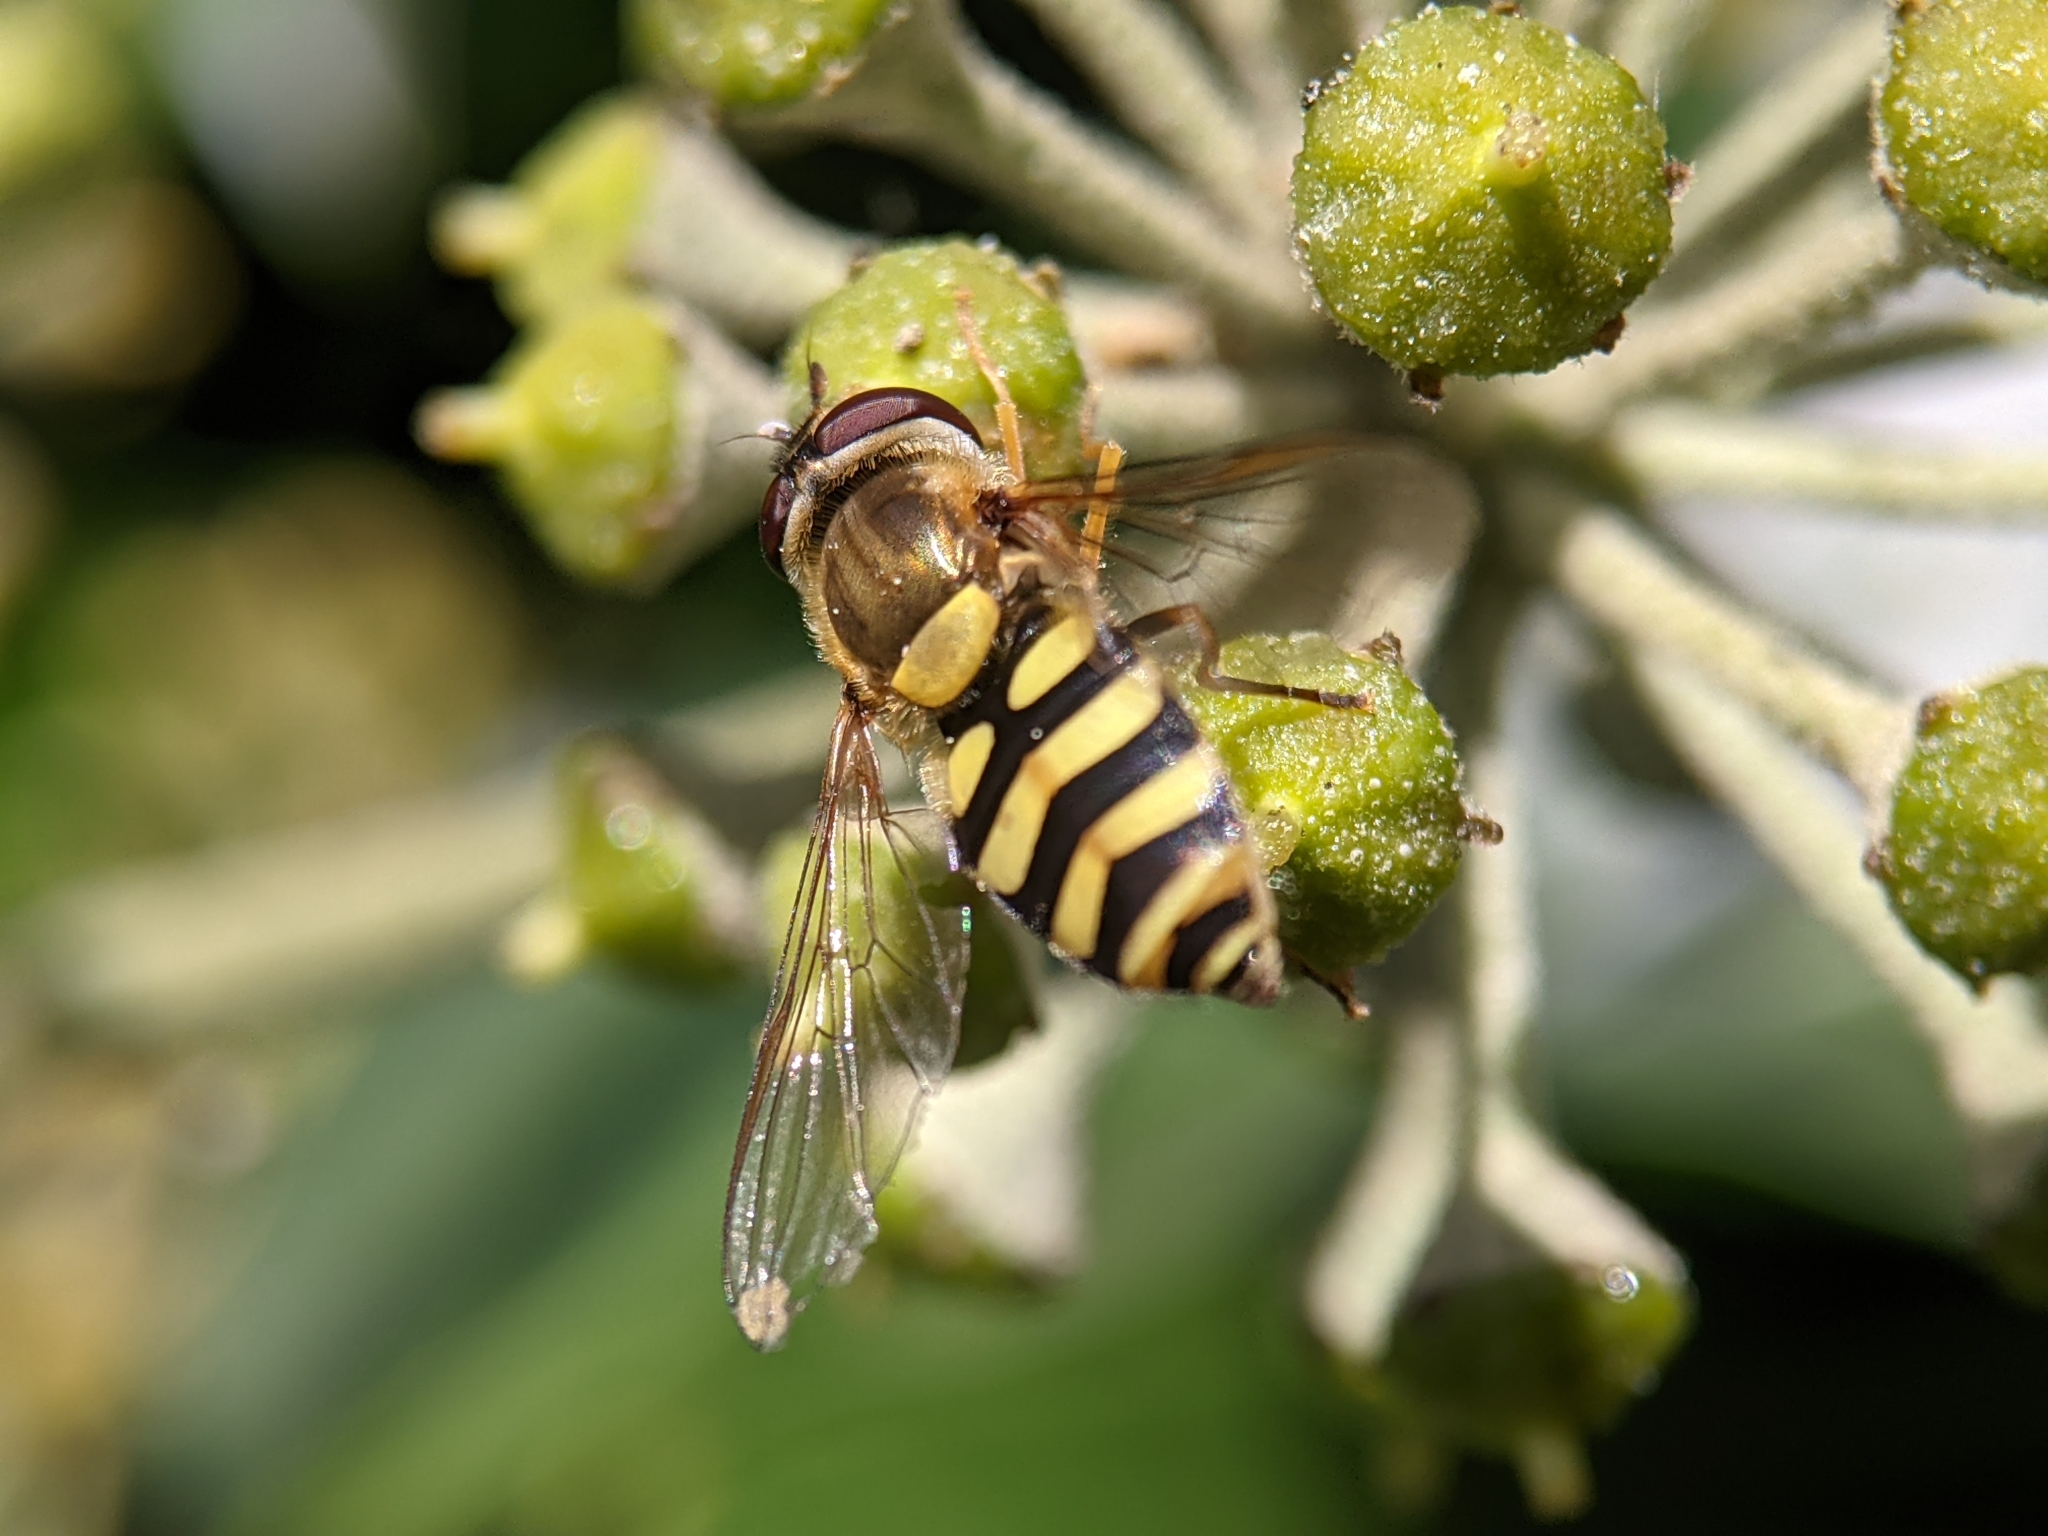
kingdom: Animalia
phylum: Arthropoda
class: Insecta
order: Diptera
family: Syrphidae
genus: Syrphus
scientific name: Syrphus vitripennis
